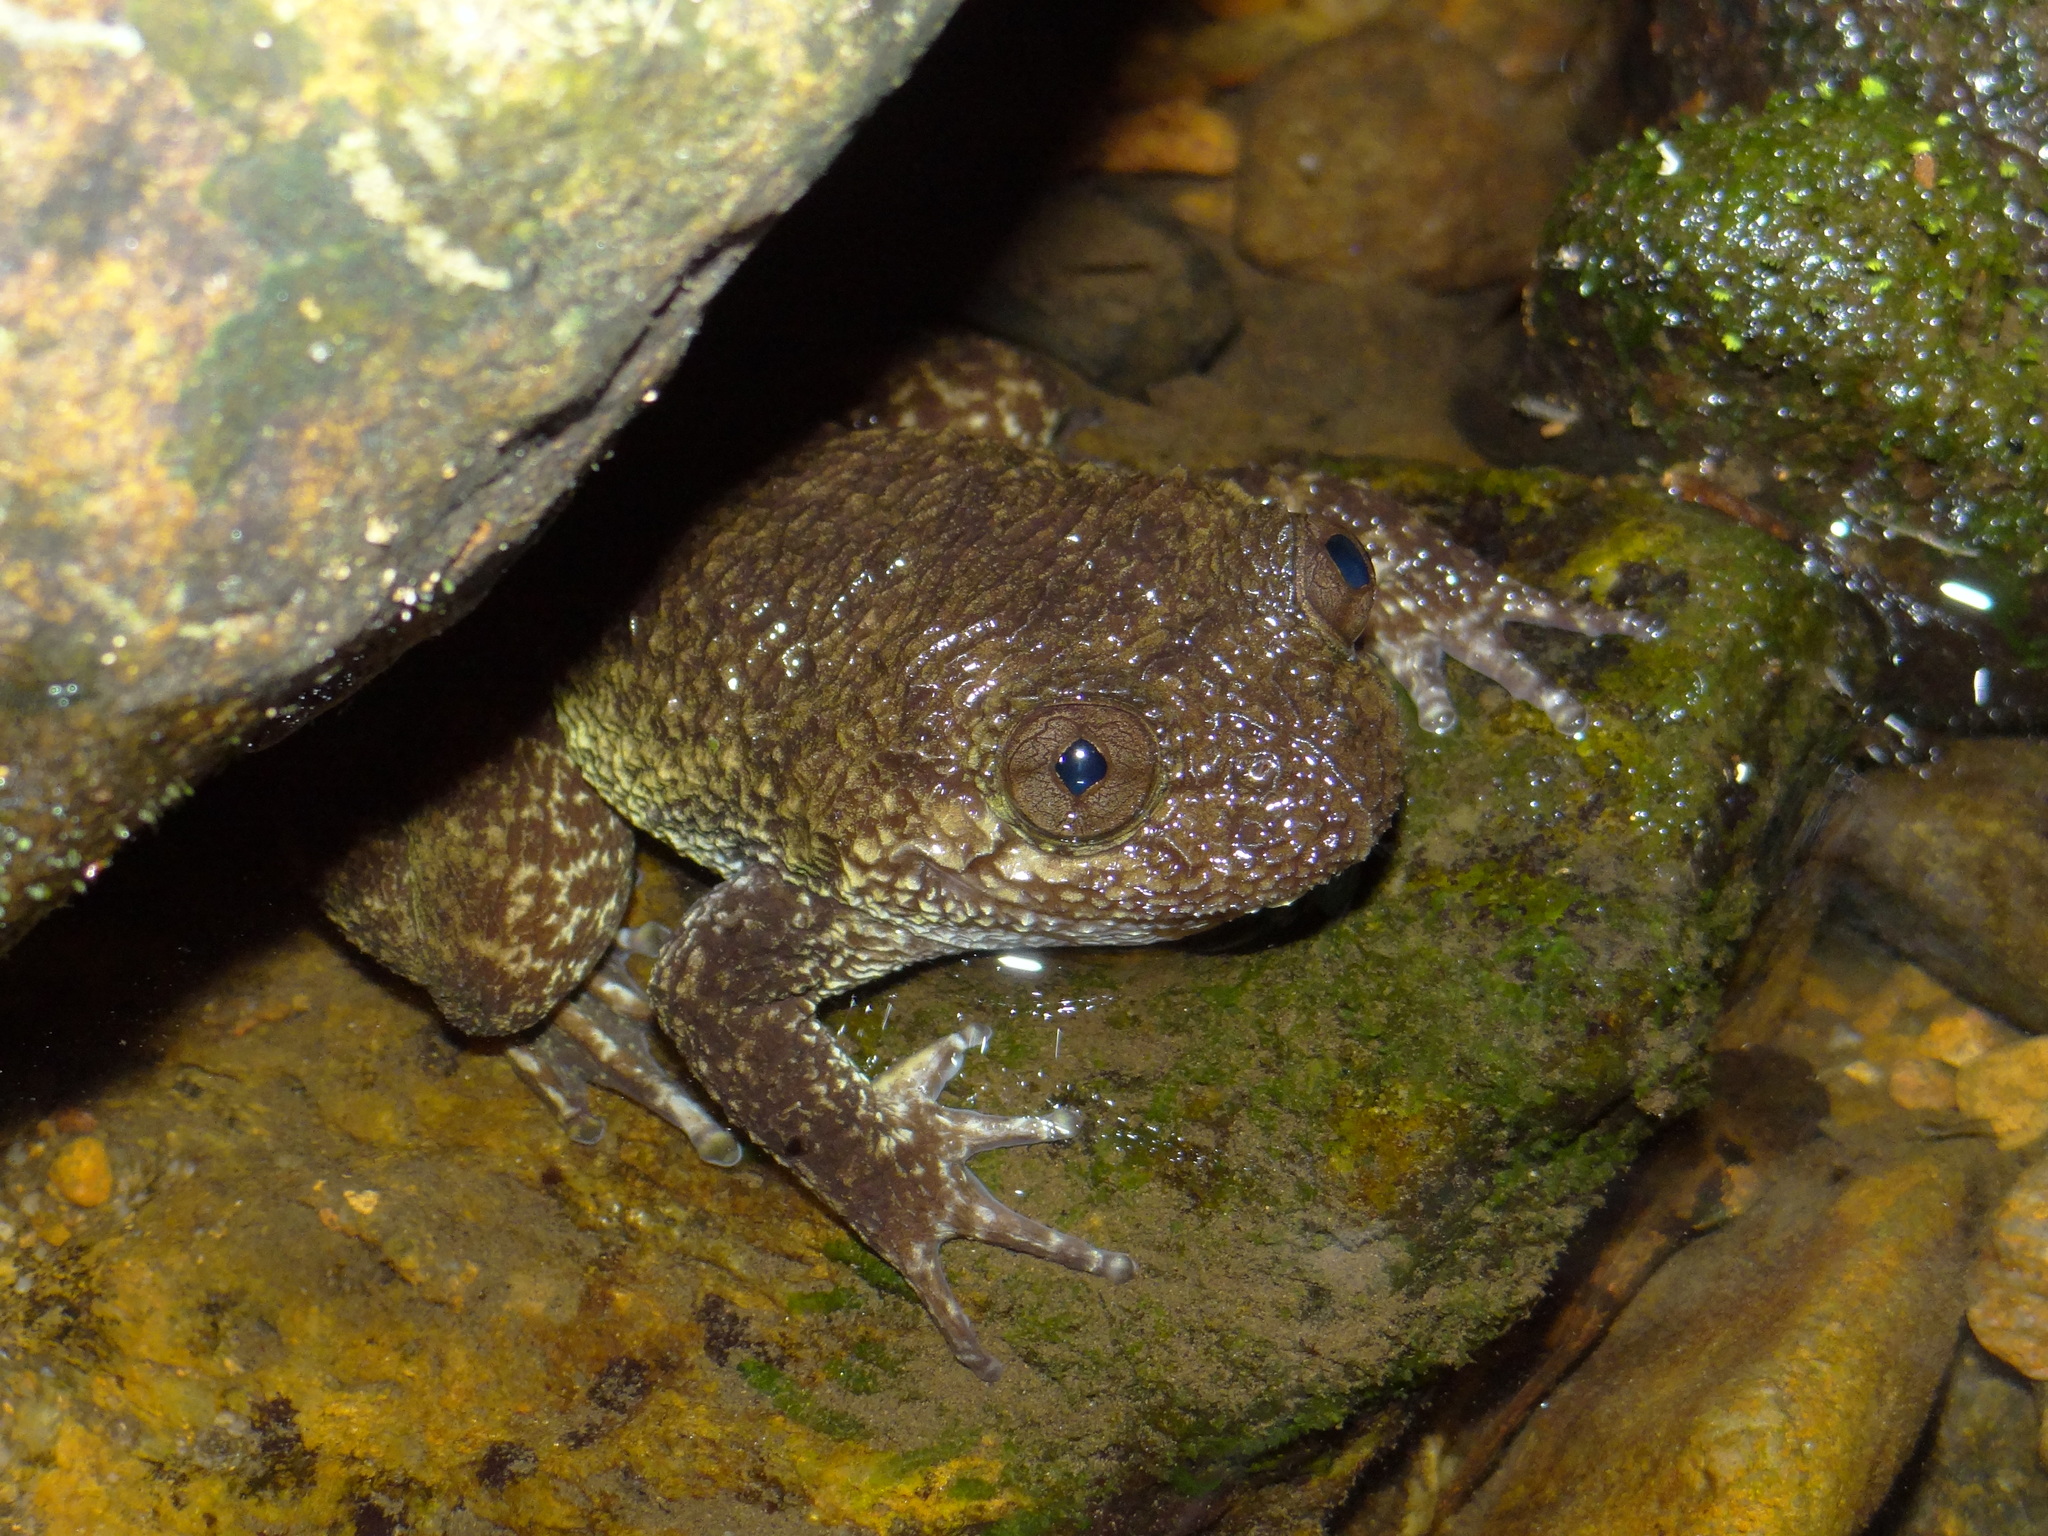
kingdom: Animalia
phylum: Chordata
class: Amphibia
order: Anura
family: Nyctibatrachidae
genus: Nyctibatrachus
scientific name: Nyctibatrachus grandis
